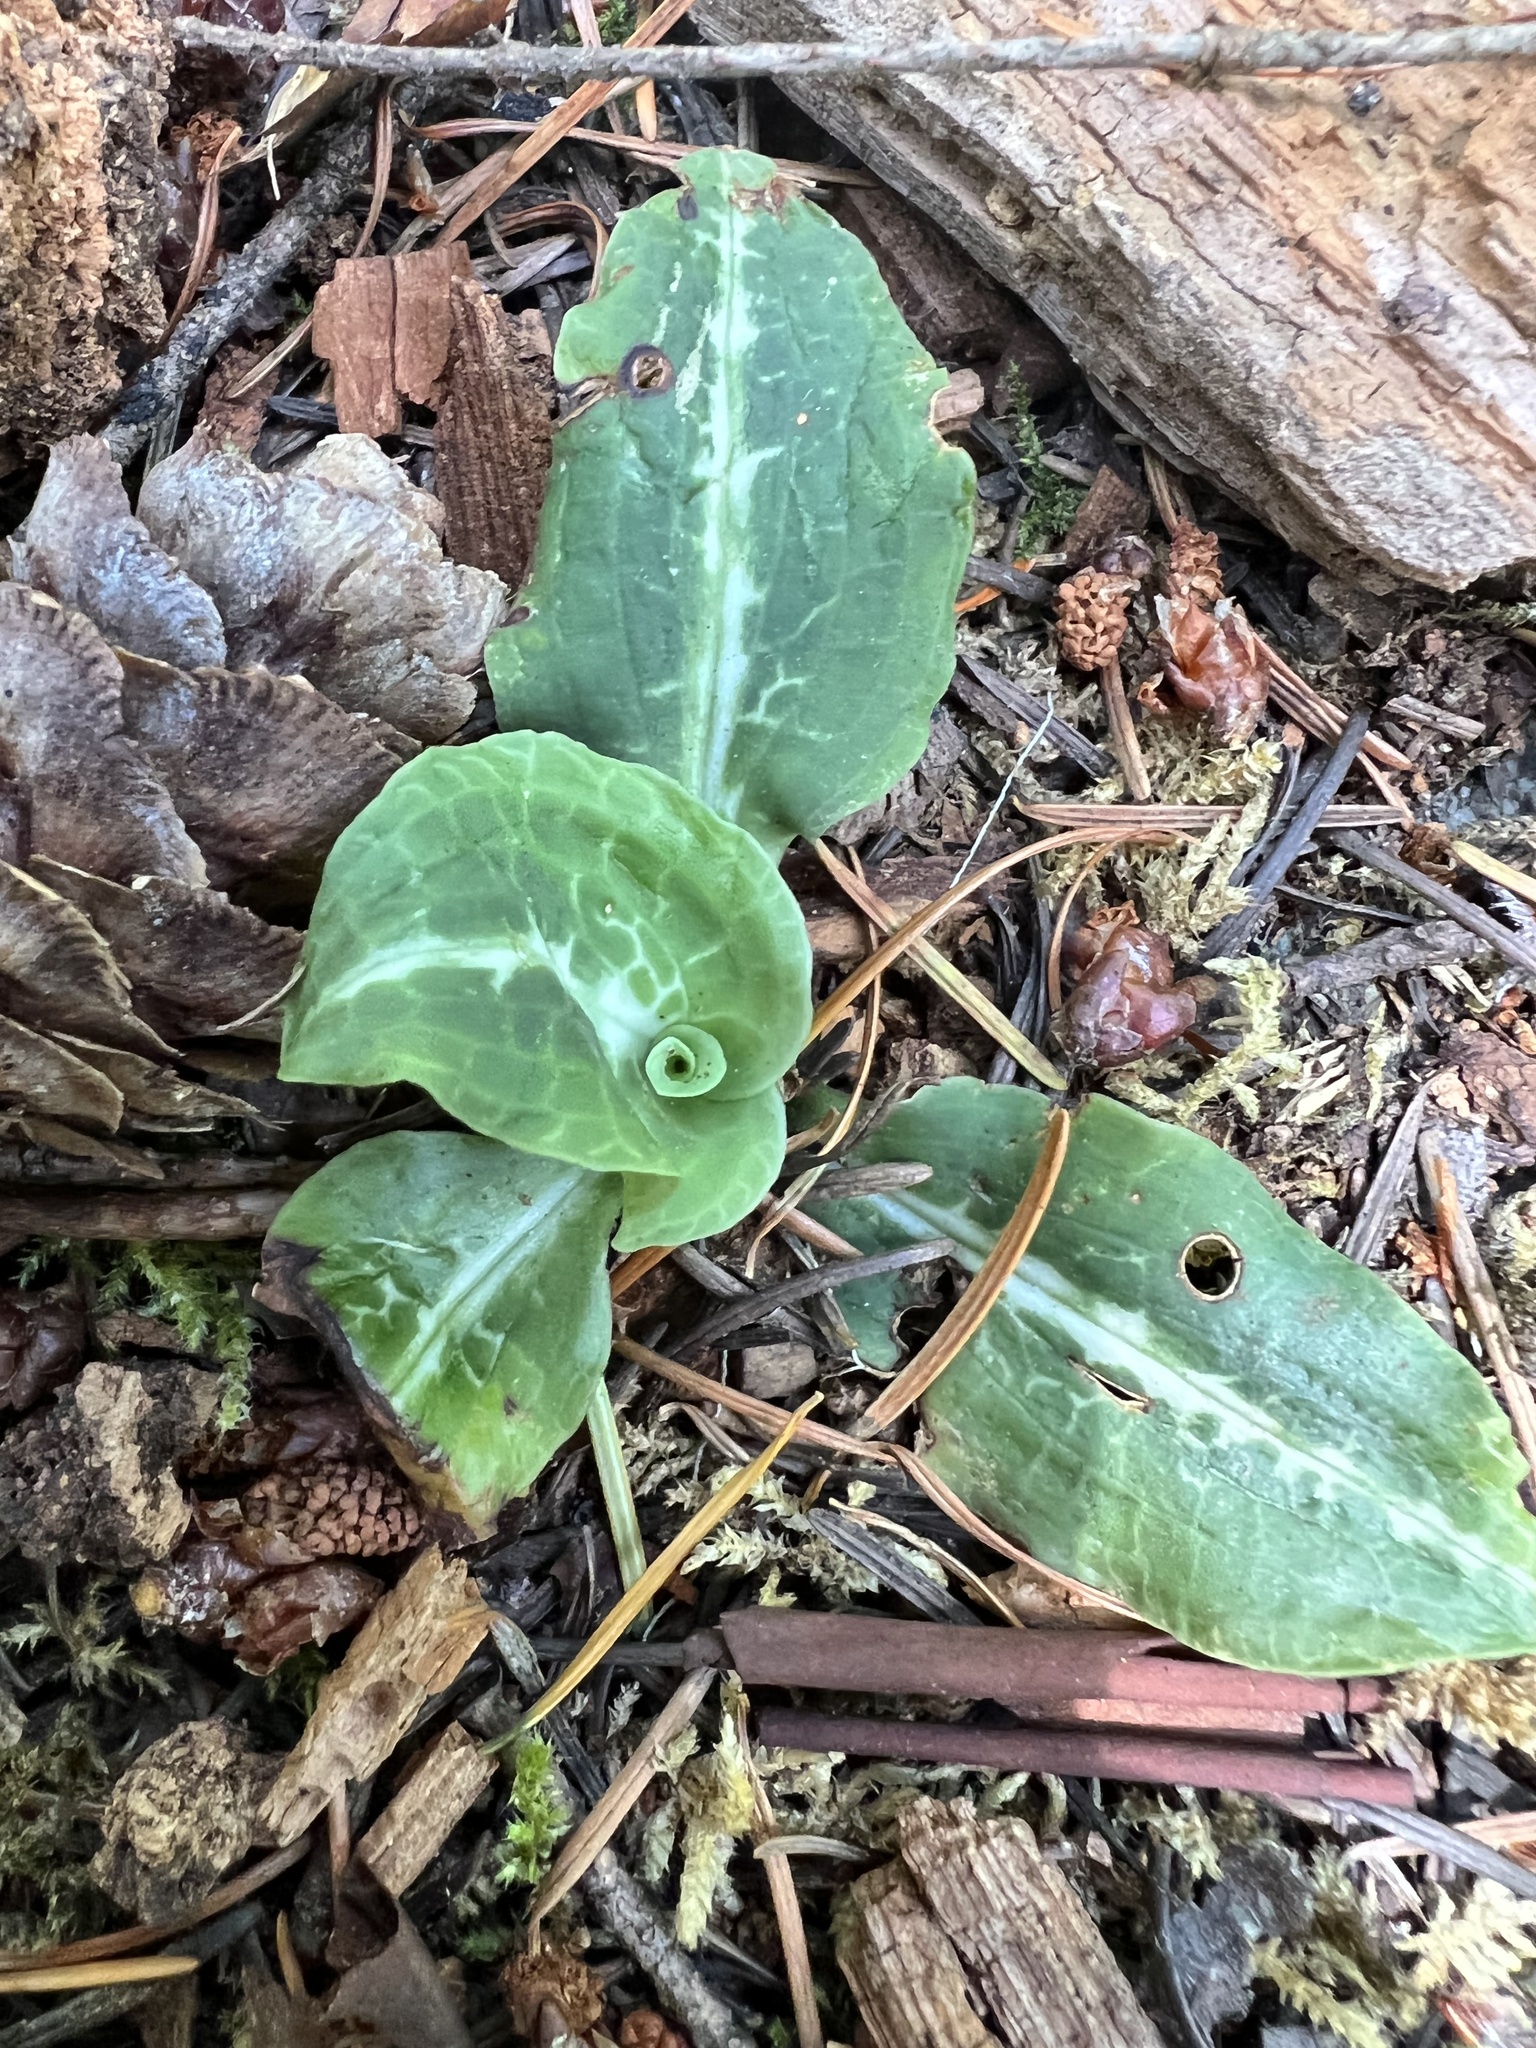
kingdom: Plantae
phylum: Tracheophyta
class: Liliopsida
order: Asparagales
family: Orchidaceae
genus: Goodyera
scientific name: Goodyera oblongifolia
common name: Giant rattlesnake-plantain
